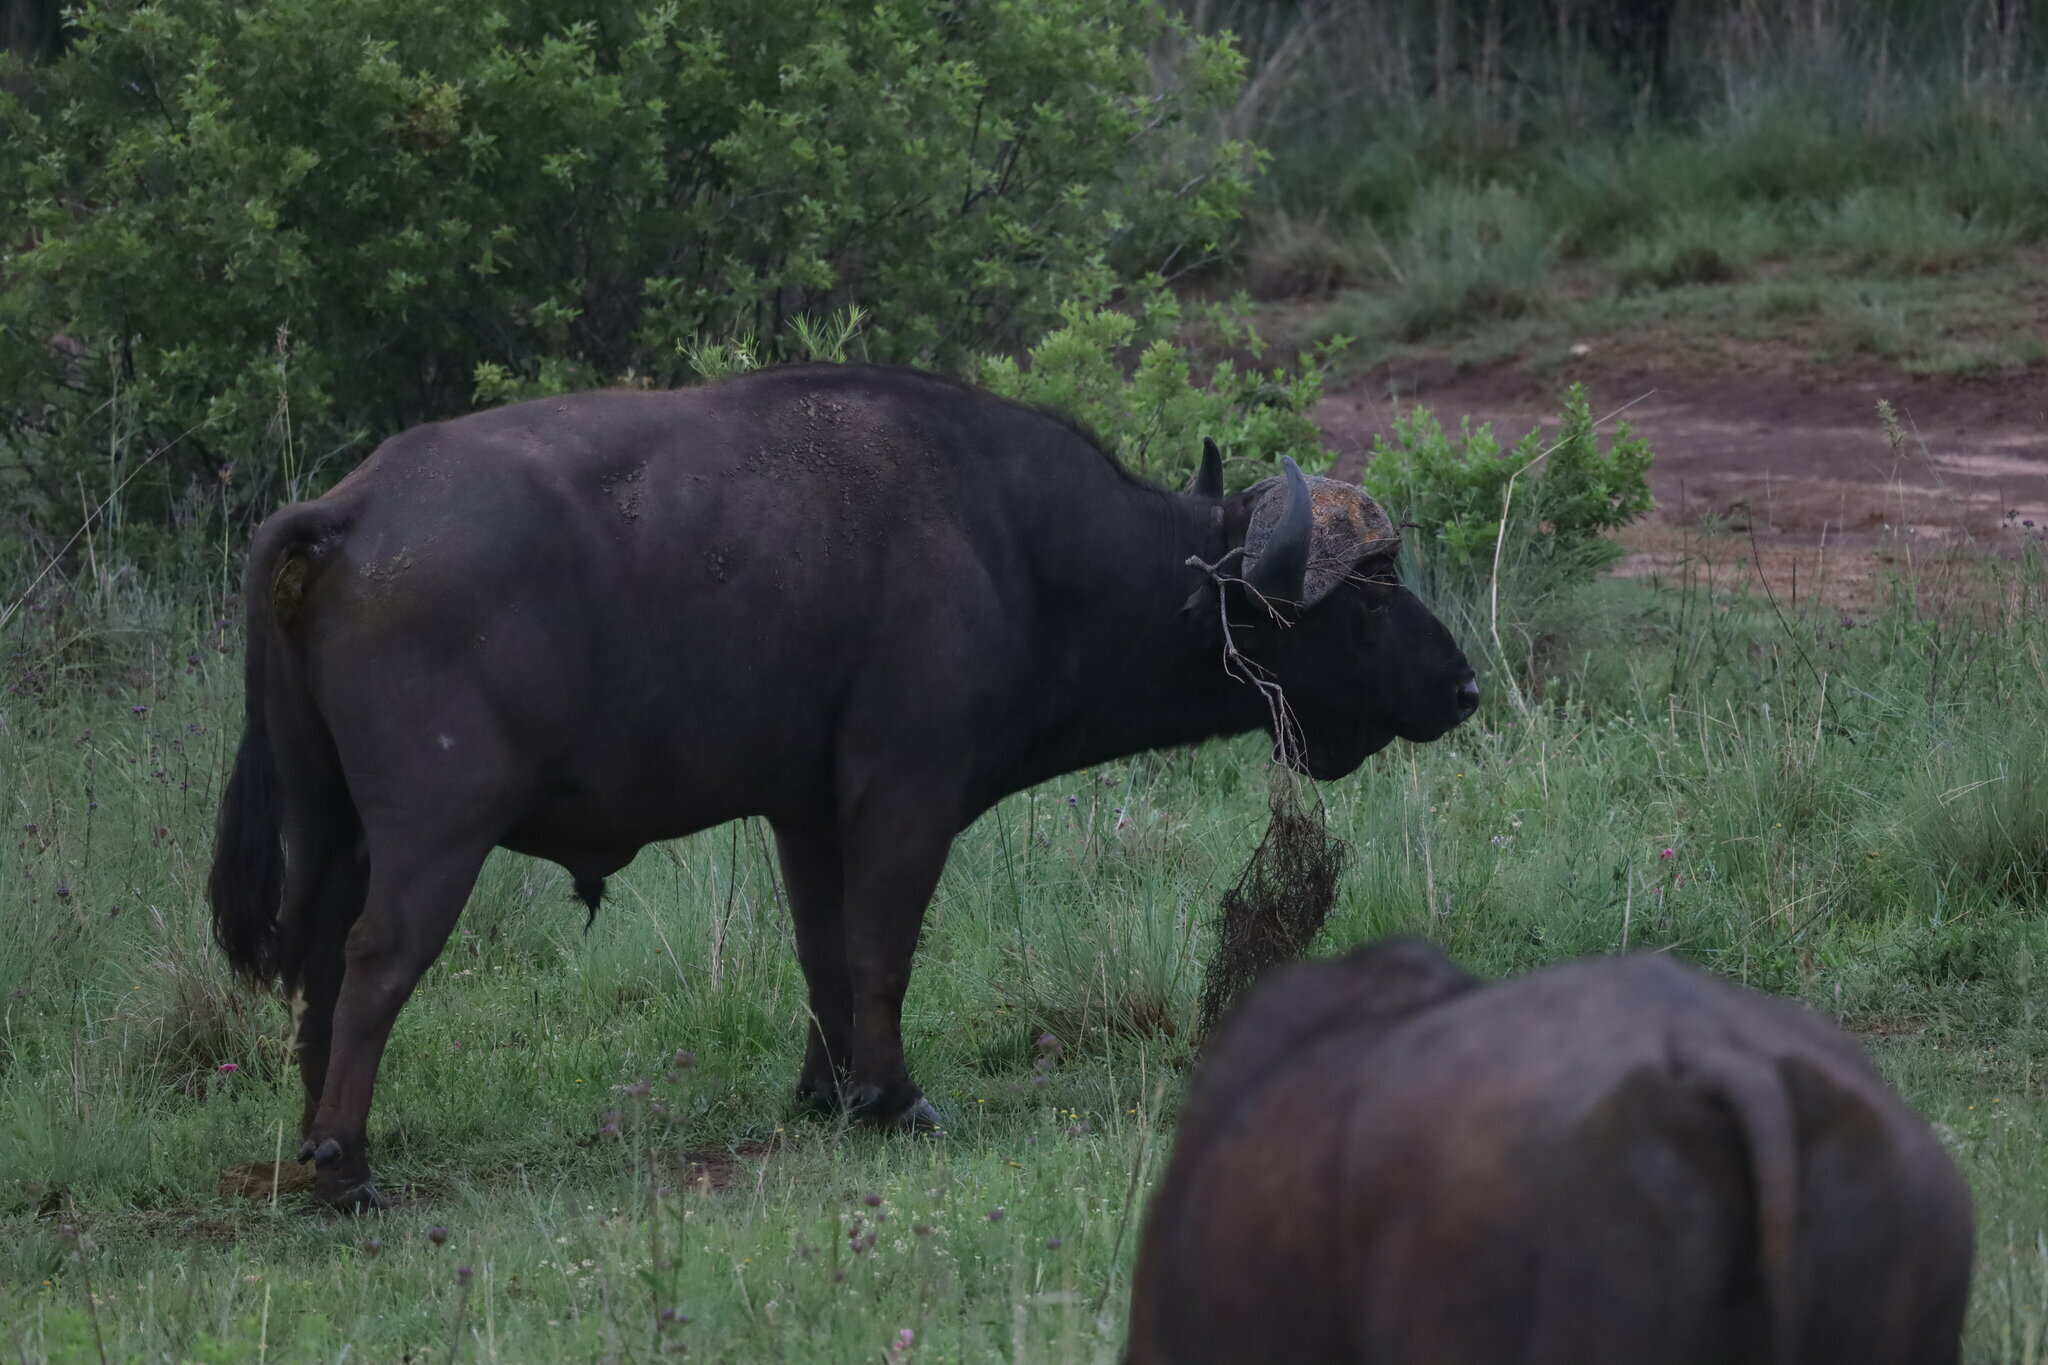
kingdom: Animalia
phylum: Chordata
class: Mammalia
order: Artiodactyla
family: Bovidae
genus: Syncerus
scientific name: Syncerus caffer
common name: African buffalo
